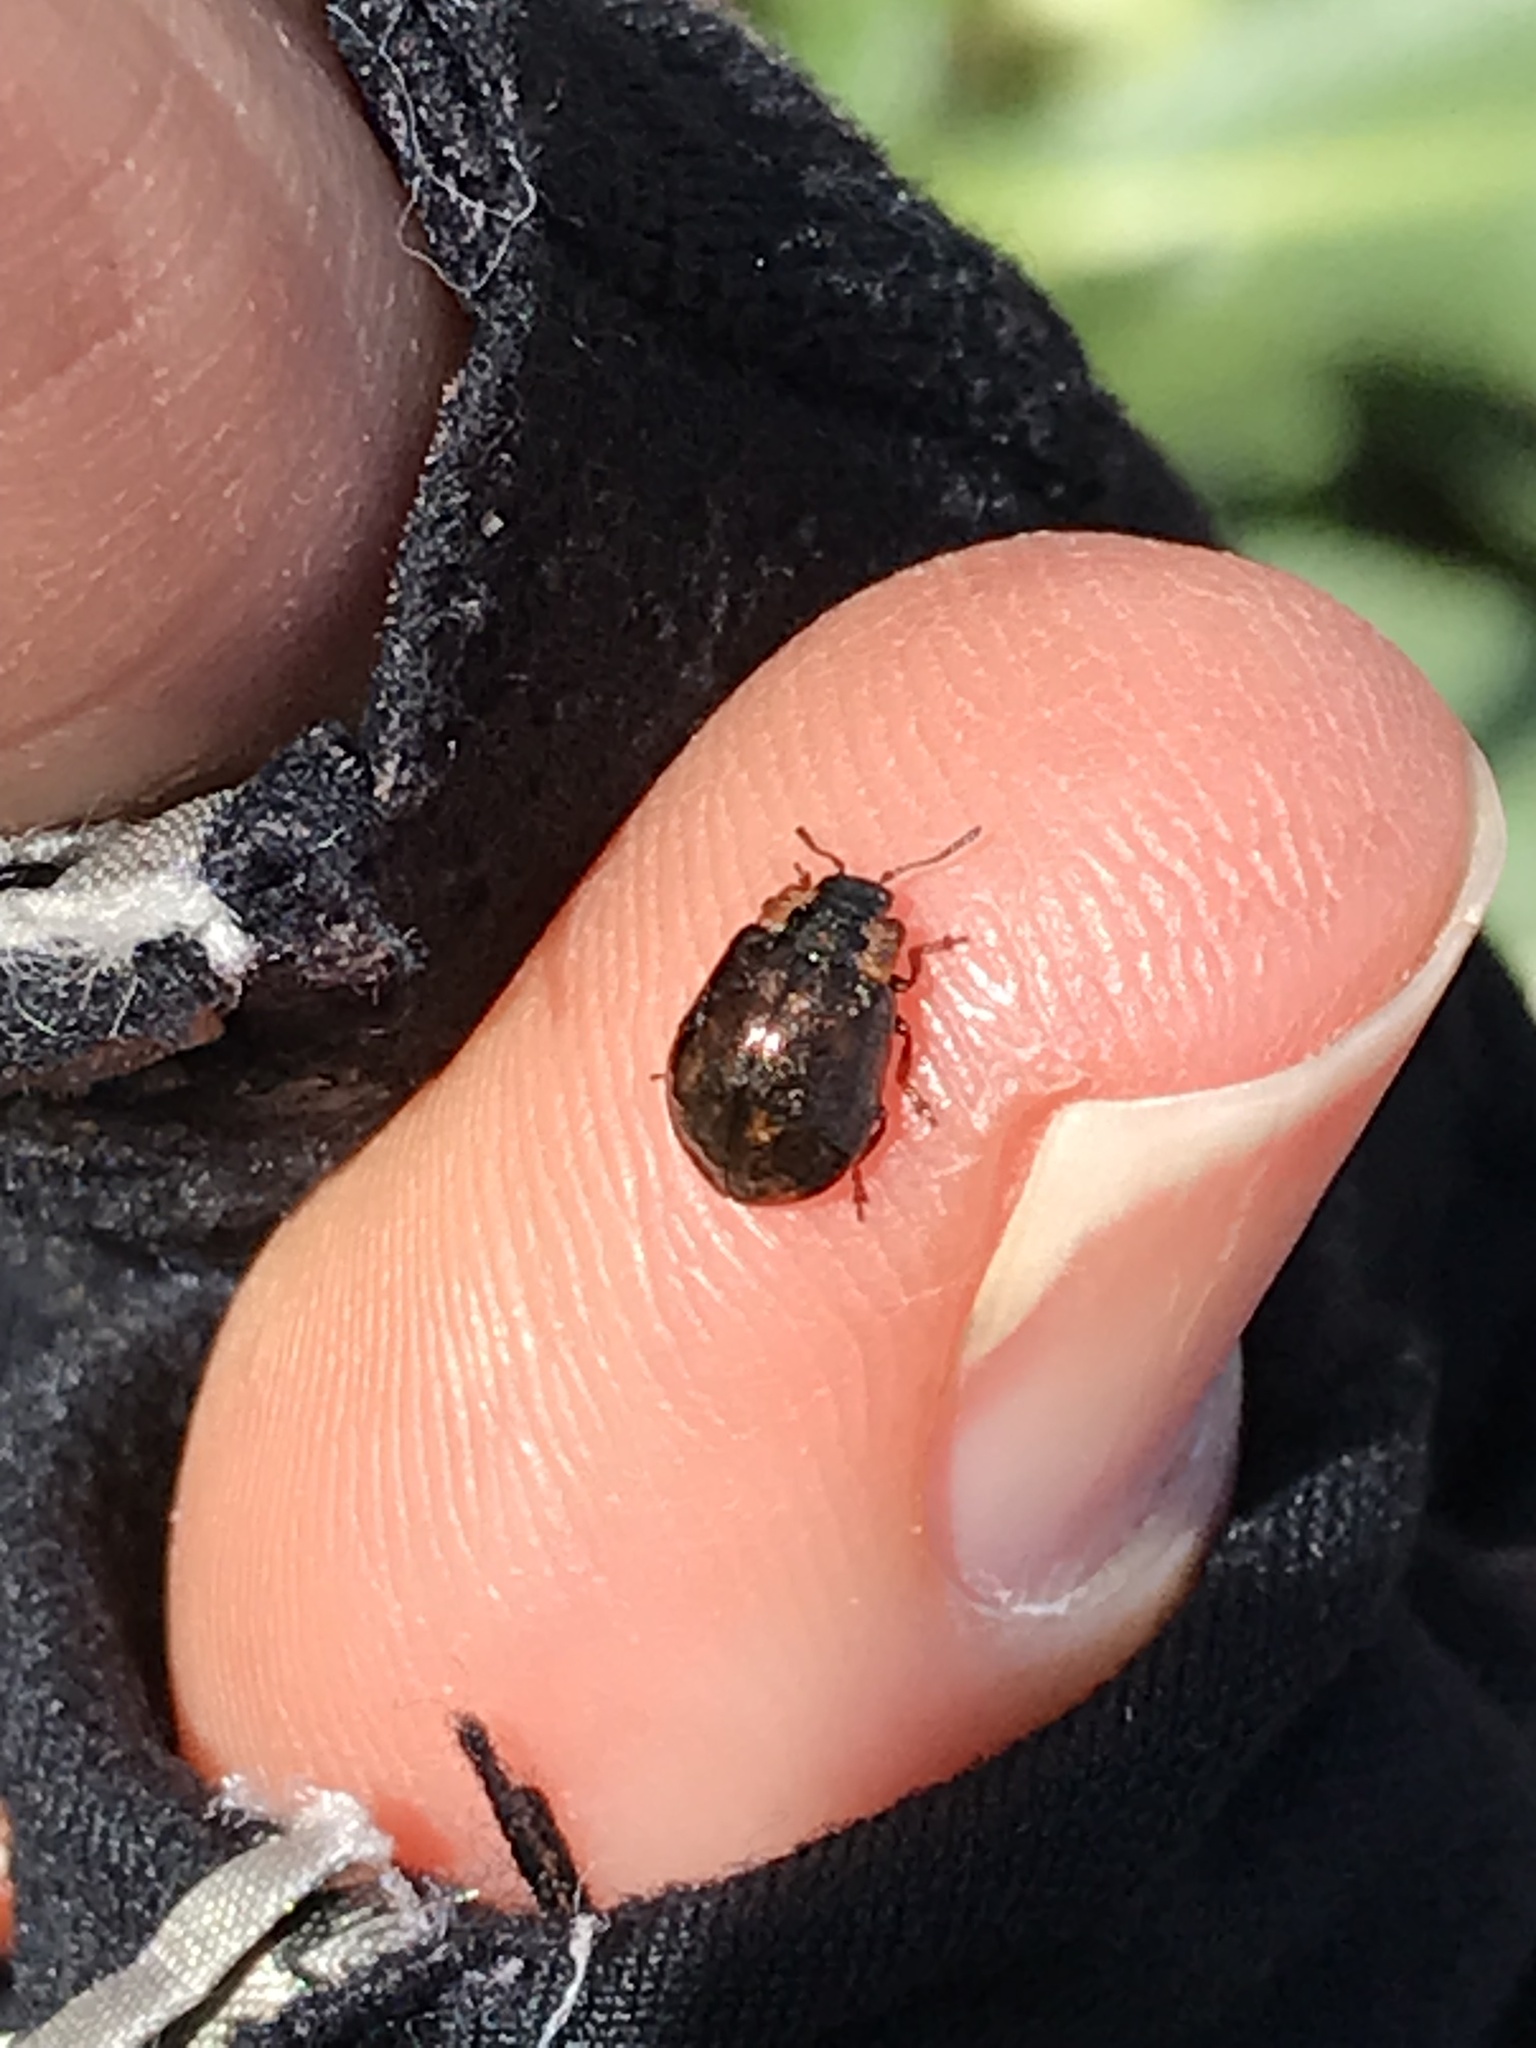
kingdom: Animalia
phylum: Arthropoda
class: Insecta
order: Coleoptera
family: Chrysomelidae
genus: Chrysomela
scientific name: Chrysomela schaefferi
